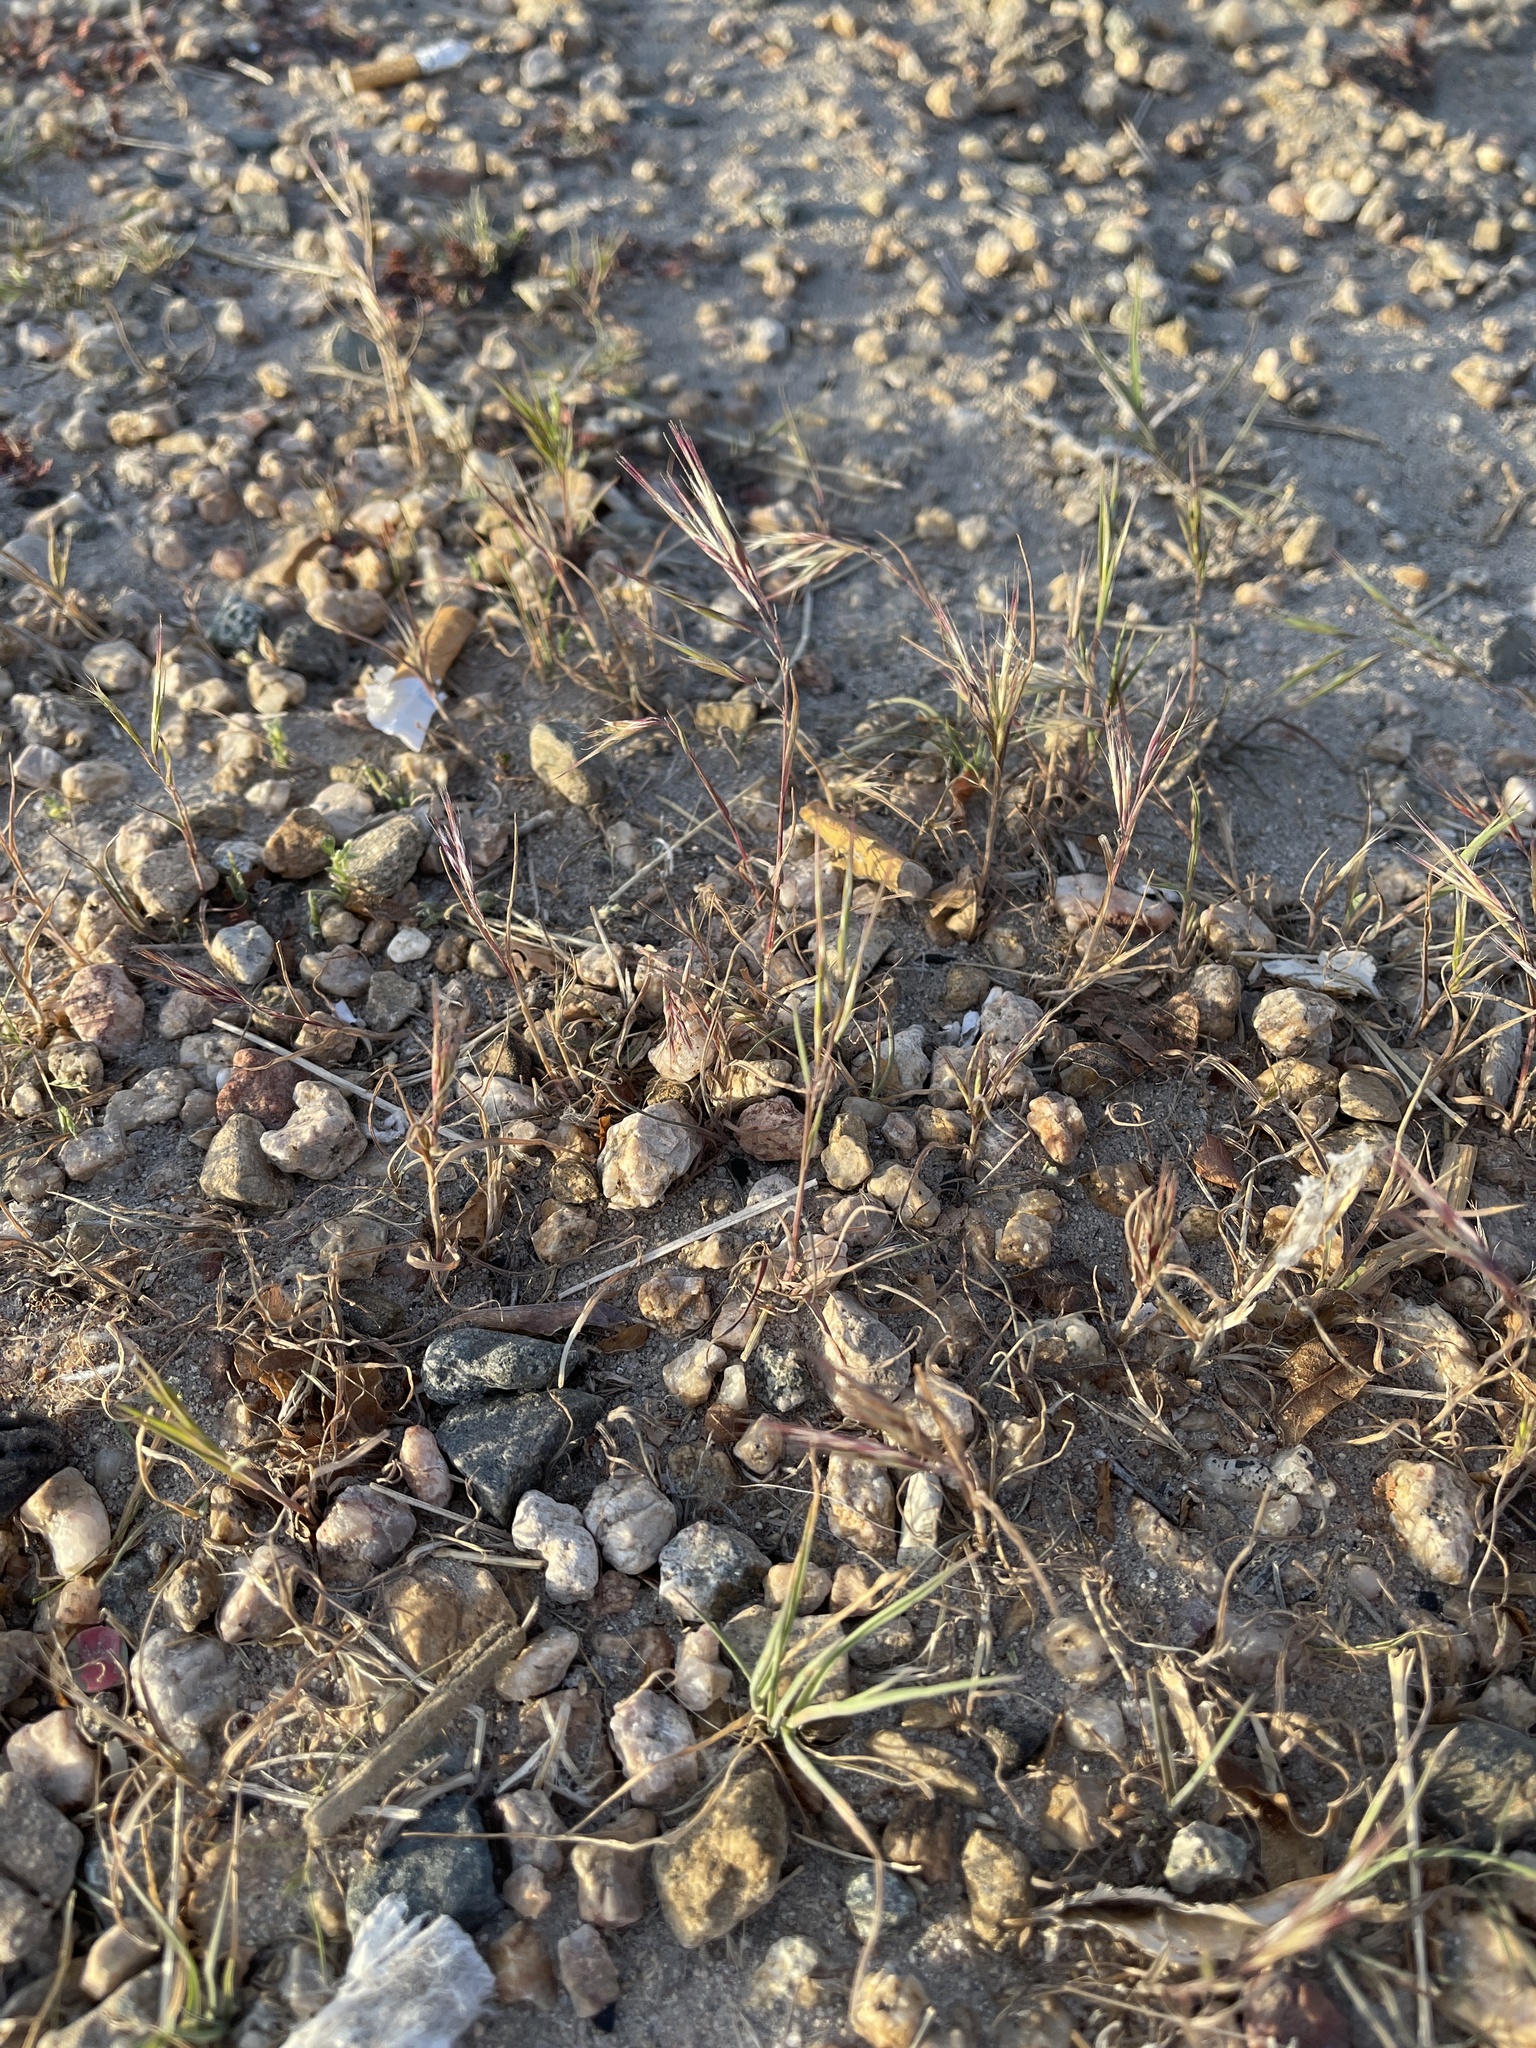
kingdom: Plantae
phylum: Tracheophyta
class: Liliopsida
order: Poales
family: Poaceae
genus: Bromus
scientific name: Bromus rubens
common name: Red brome
